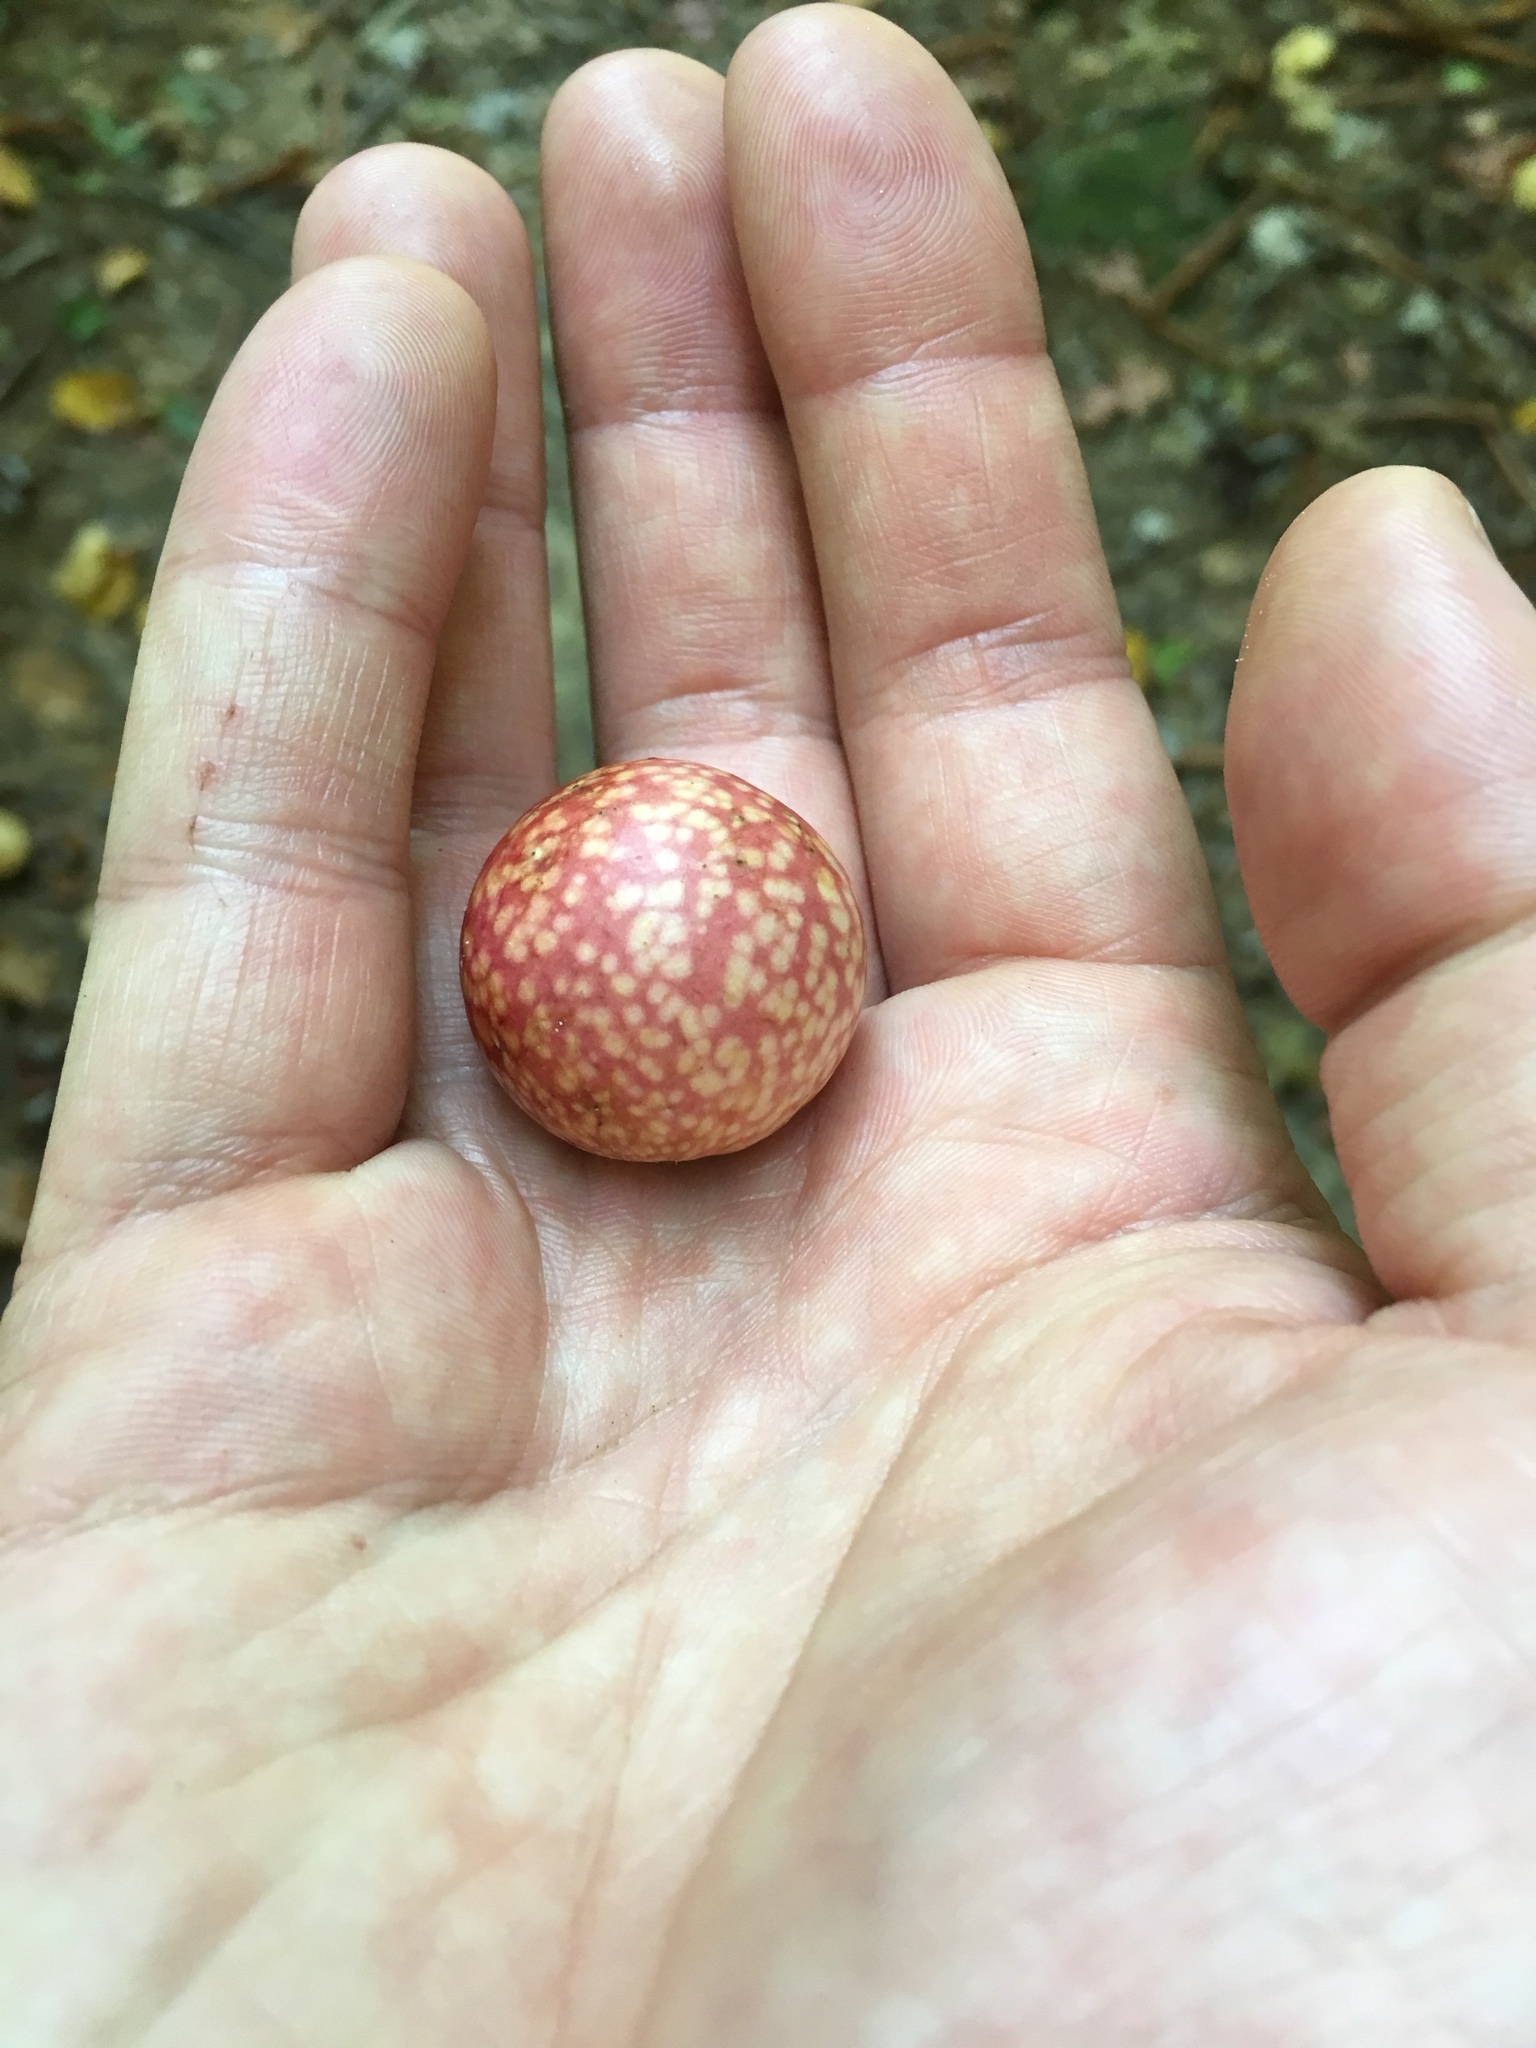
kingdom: Animalia
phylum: Arthropoda
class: Insecta
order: Hymenoptera
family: Cynipidae
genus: Amphibolips
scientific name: Amphibolips
